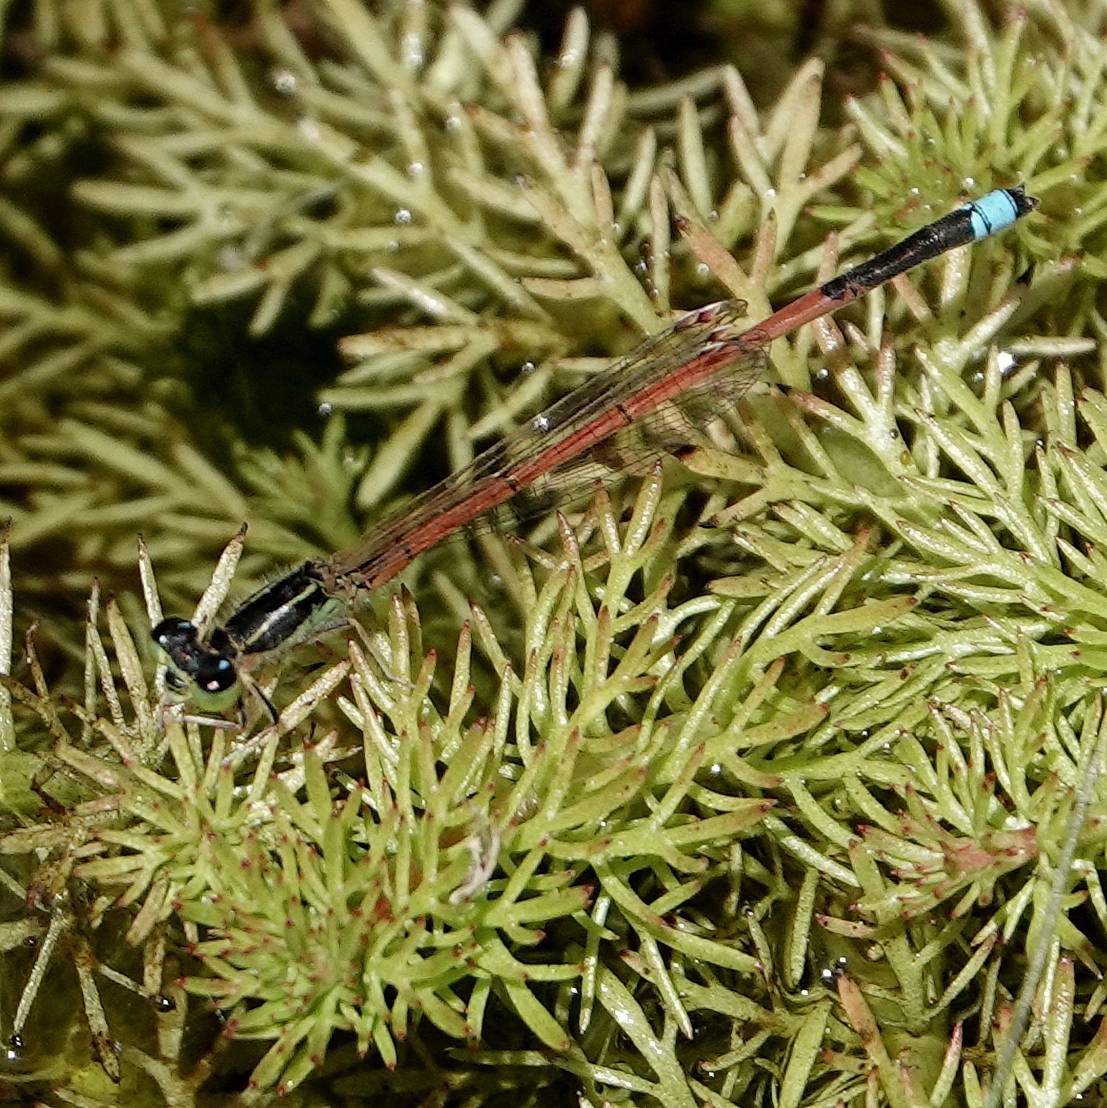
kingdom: Animalia
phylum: Arthropoda
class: Insecta
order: Odonata
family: Coenagrionidae
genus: Ischnura
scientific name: Ischnura aurora
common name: Gossamer damselfly
